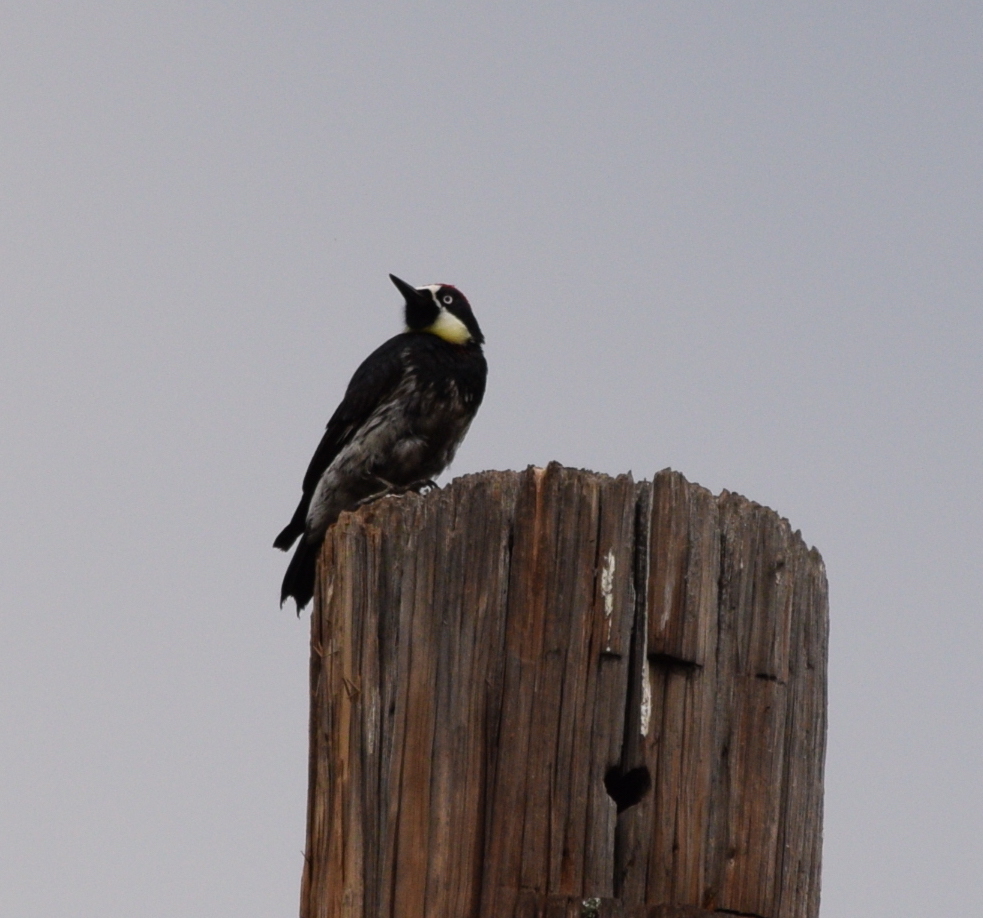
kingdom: Animalia
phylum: Chordata
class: Aves
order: Piciformes
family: Picidae
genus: Melanerpes
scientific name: Melanerpes formicivorus
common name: Acorn woodpecker
